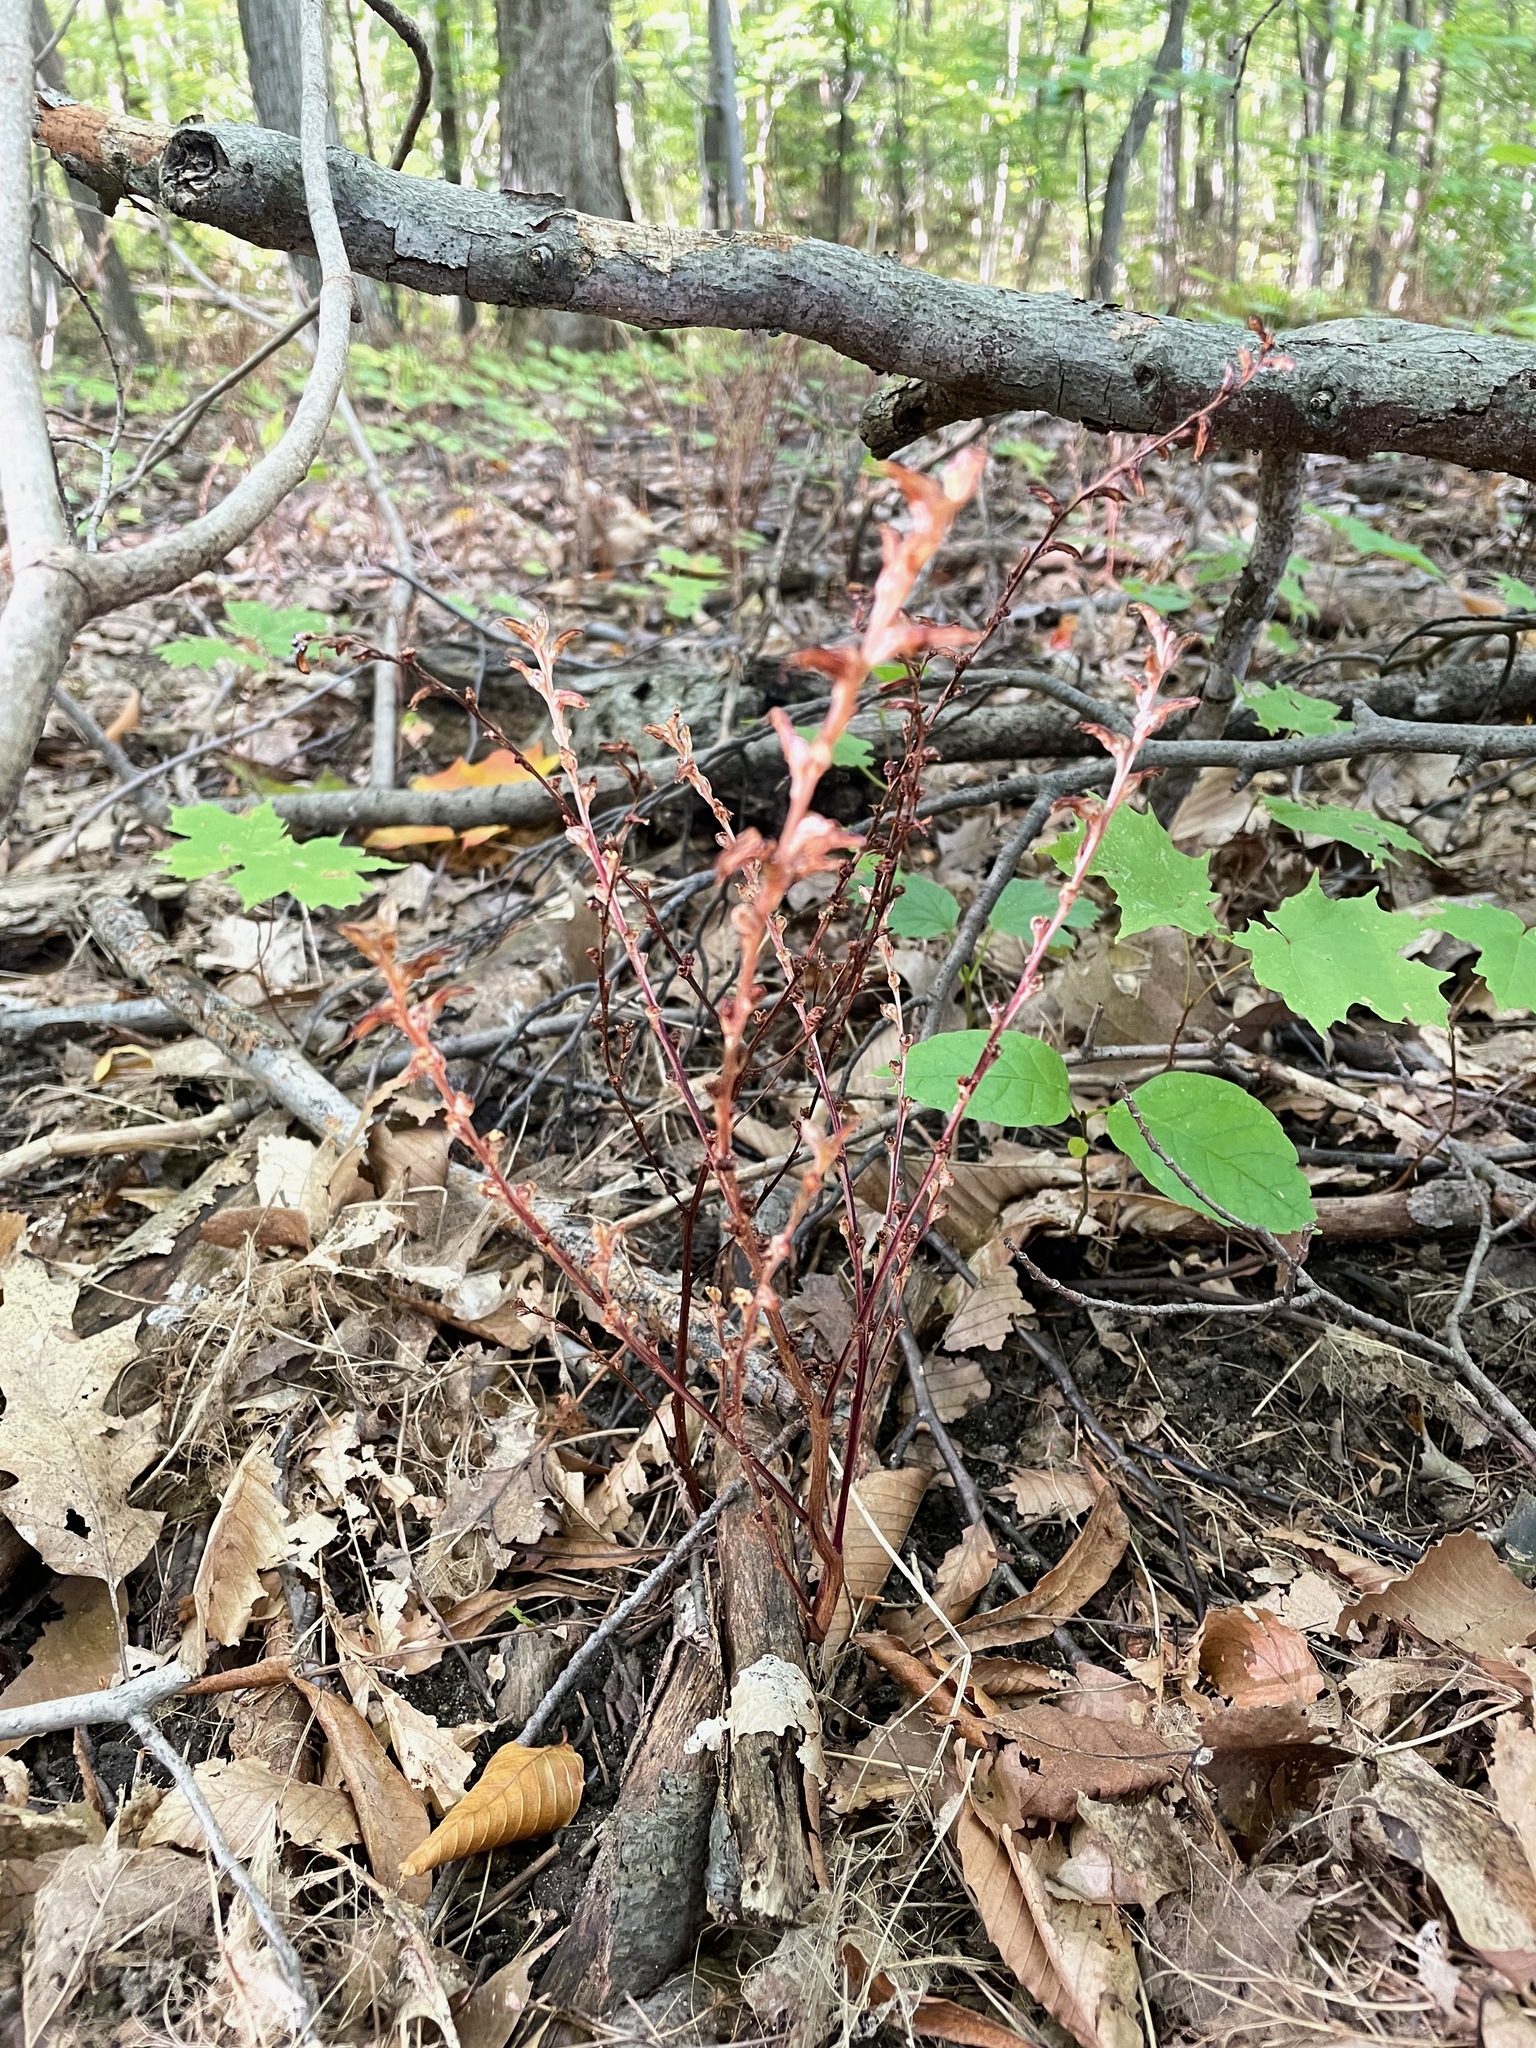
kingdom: Plantae
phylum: Tracheophyta
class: Magnoliopsida
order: Lamiales
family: Orobanchaceae
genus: Epifagus
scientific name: Epifagus virginiana
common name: Beechdrops
